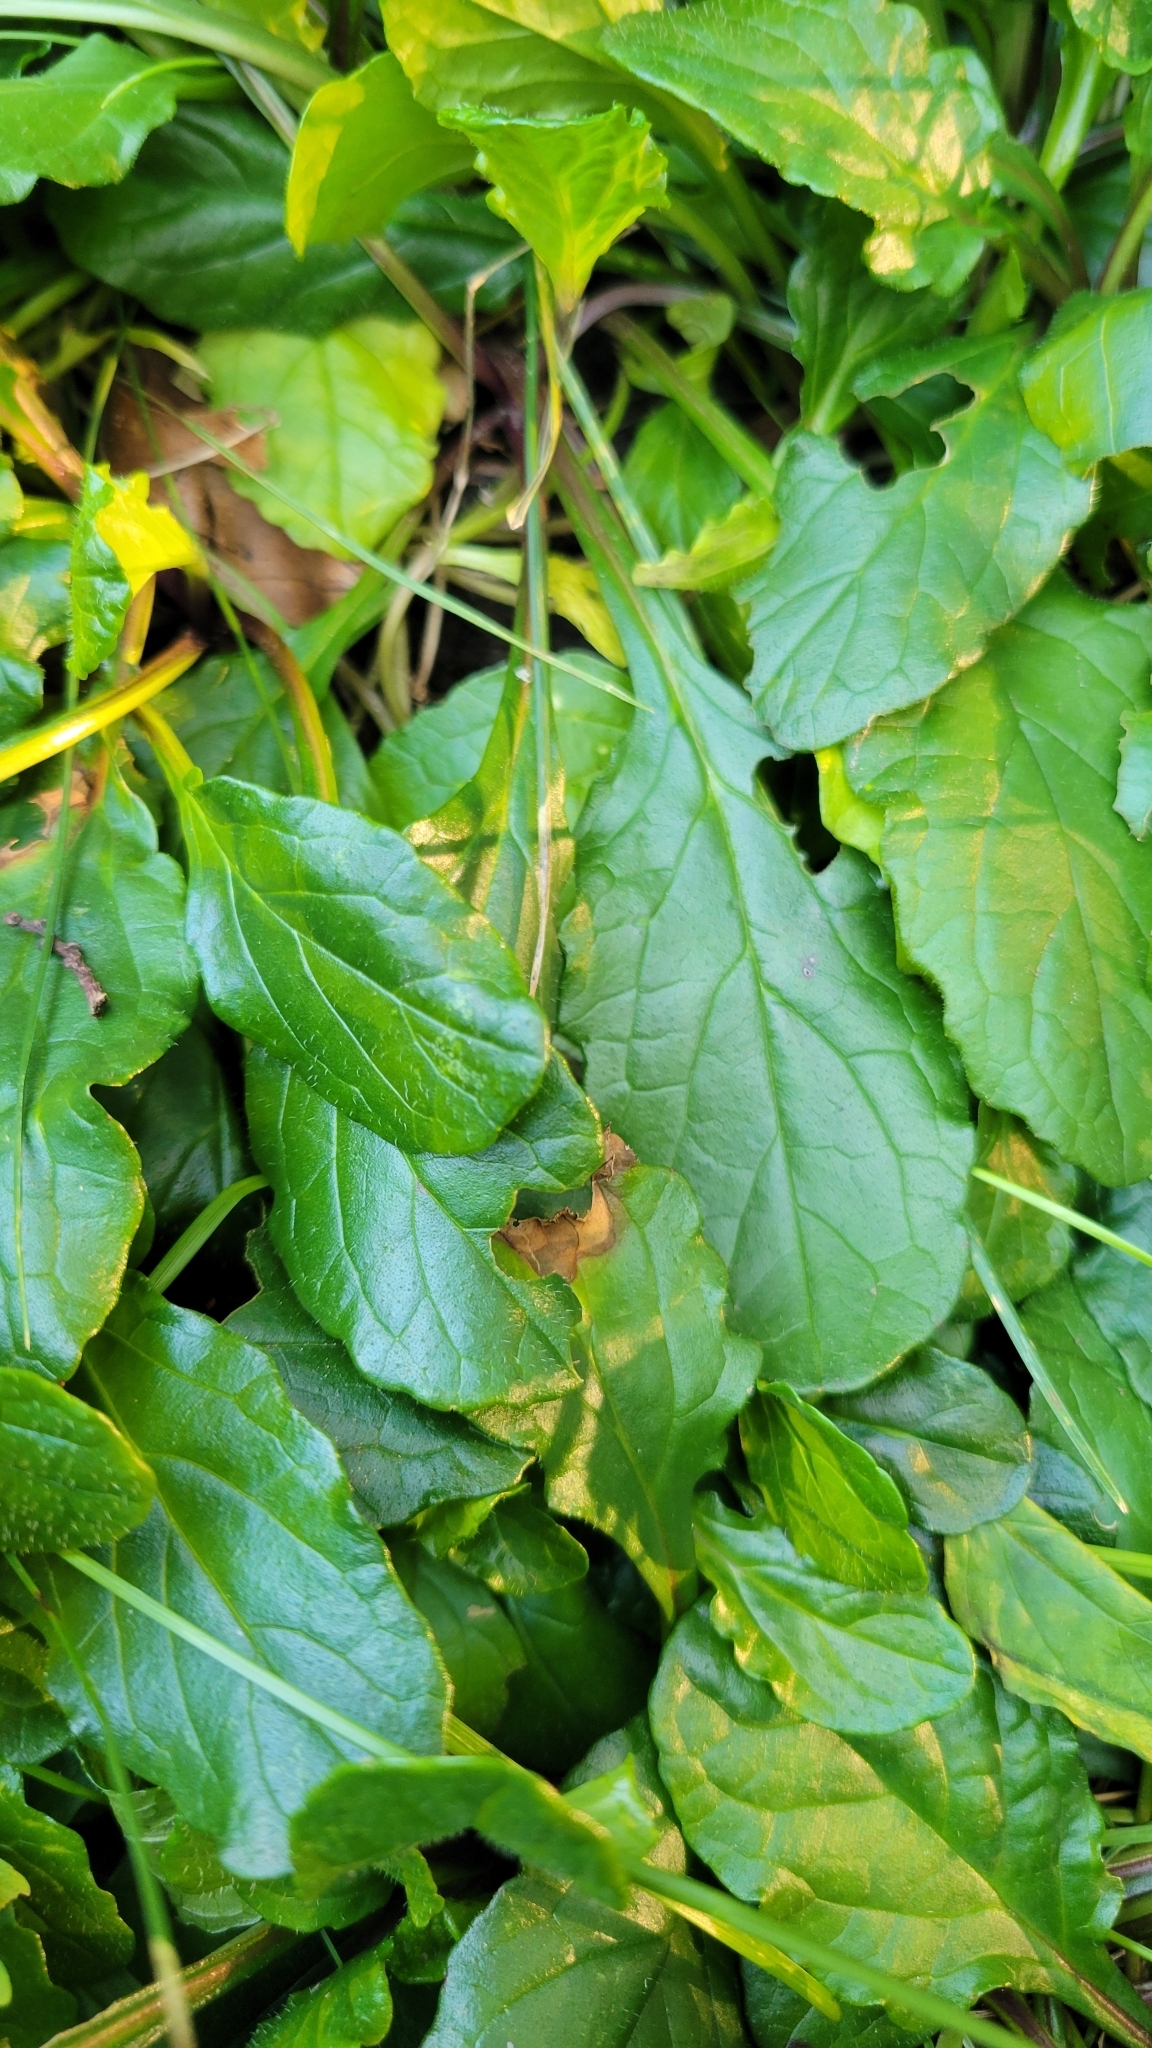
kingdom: Plantae
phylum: Tracheophyta
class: Magnoliopsida
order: Lamiales
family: Lamiaceae
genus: Ajuga
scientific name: Ajuga reptans
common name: Bugle
